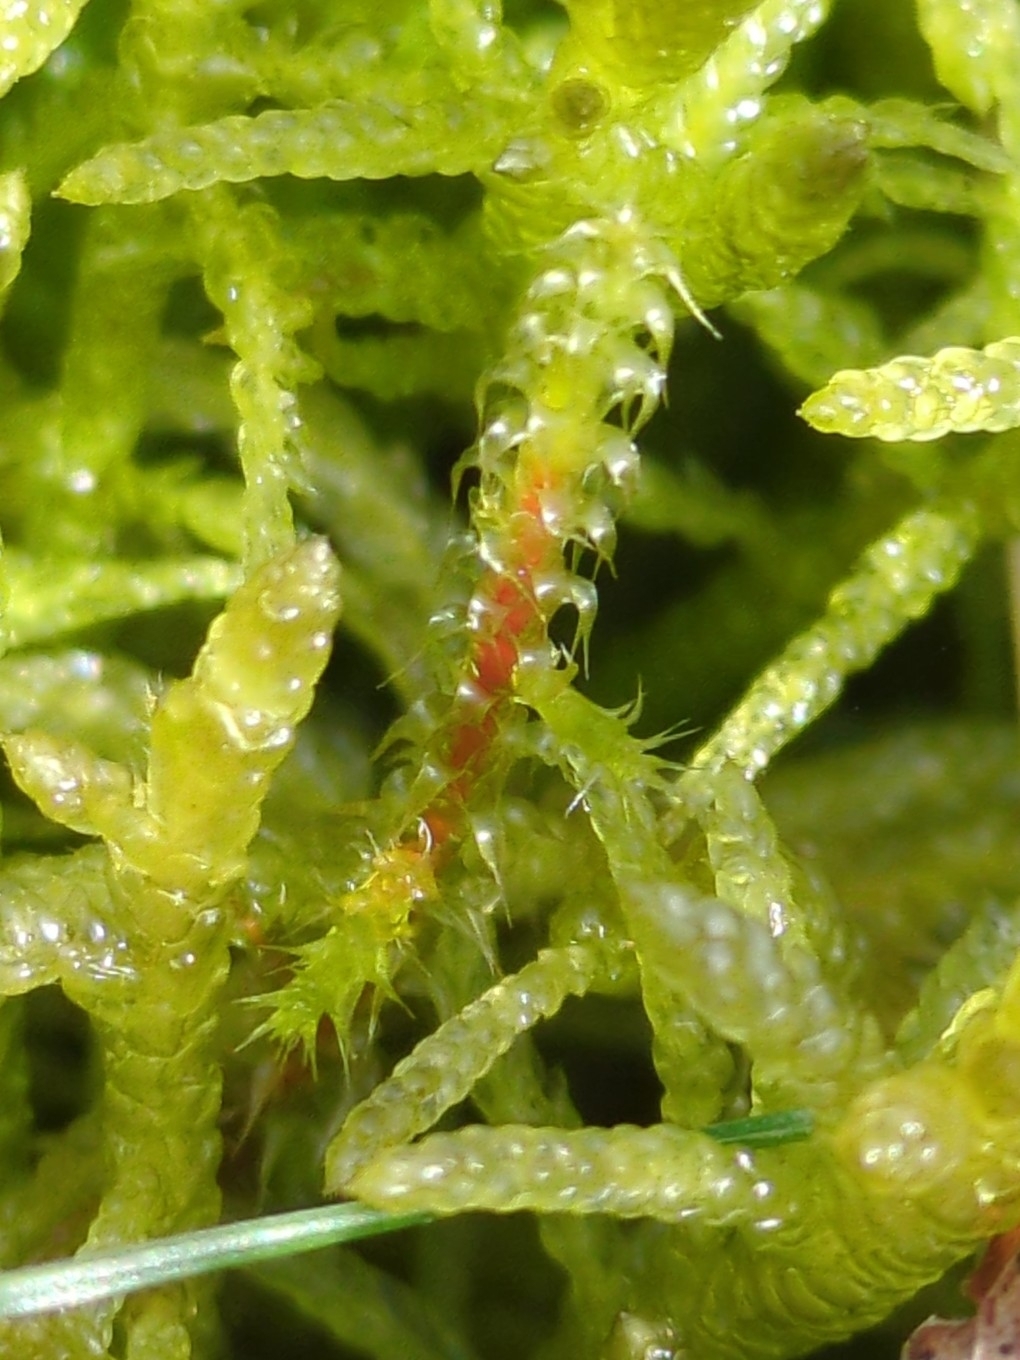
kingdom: Plantae
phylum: Bryophyta
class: Bryopsida
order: Hypnales
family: Hylocomiaceae
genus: Rhytidiadelphus
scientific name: Rhytidiadelphus squarrosus
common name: Springy turf-moss
